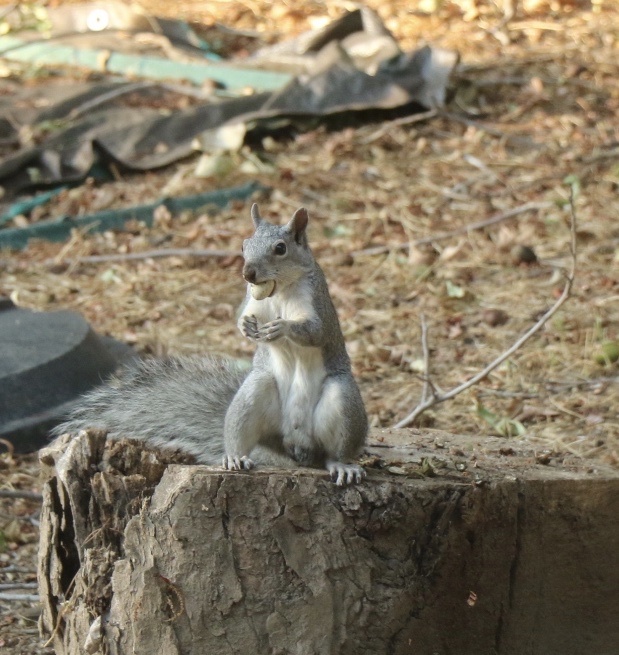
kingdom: Animalia
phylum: Chordata
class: Mammalia
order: Rodentia
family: Sciuridae
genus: Sciurus
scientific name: Sciurus griseus
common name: Western gray squirrel
